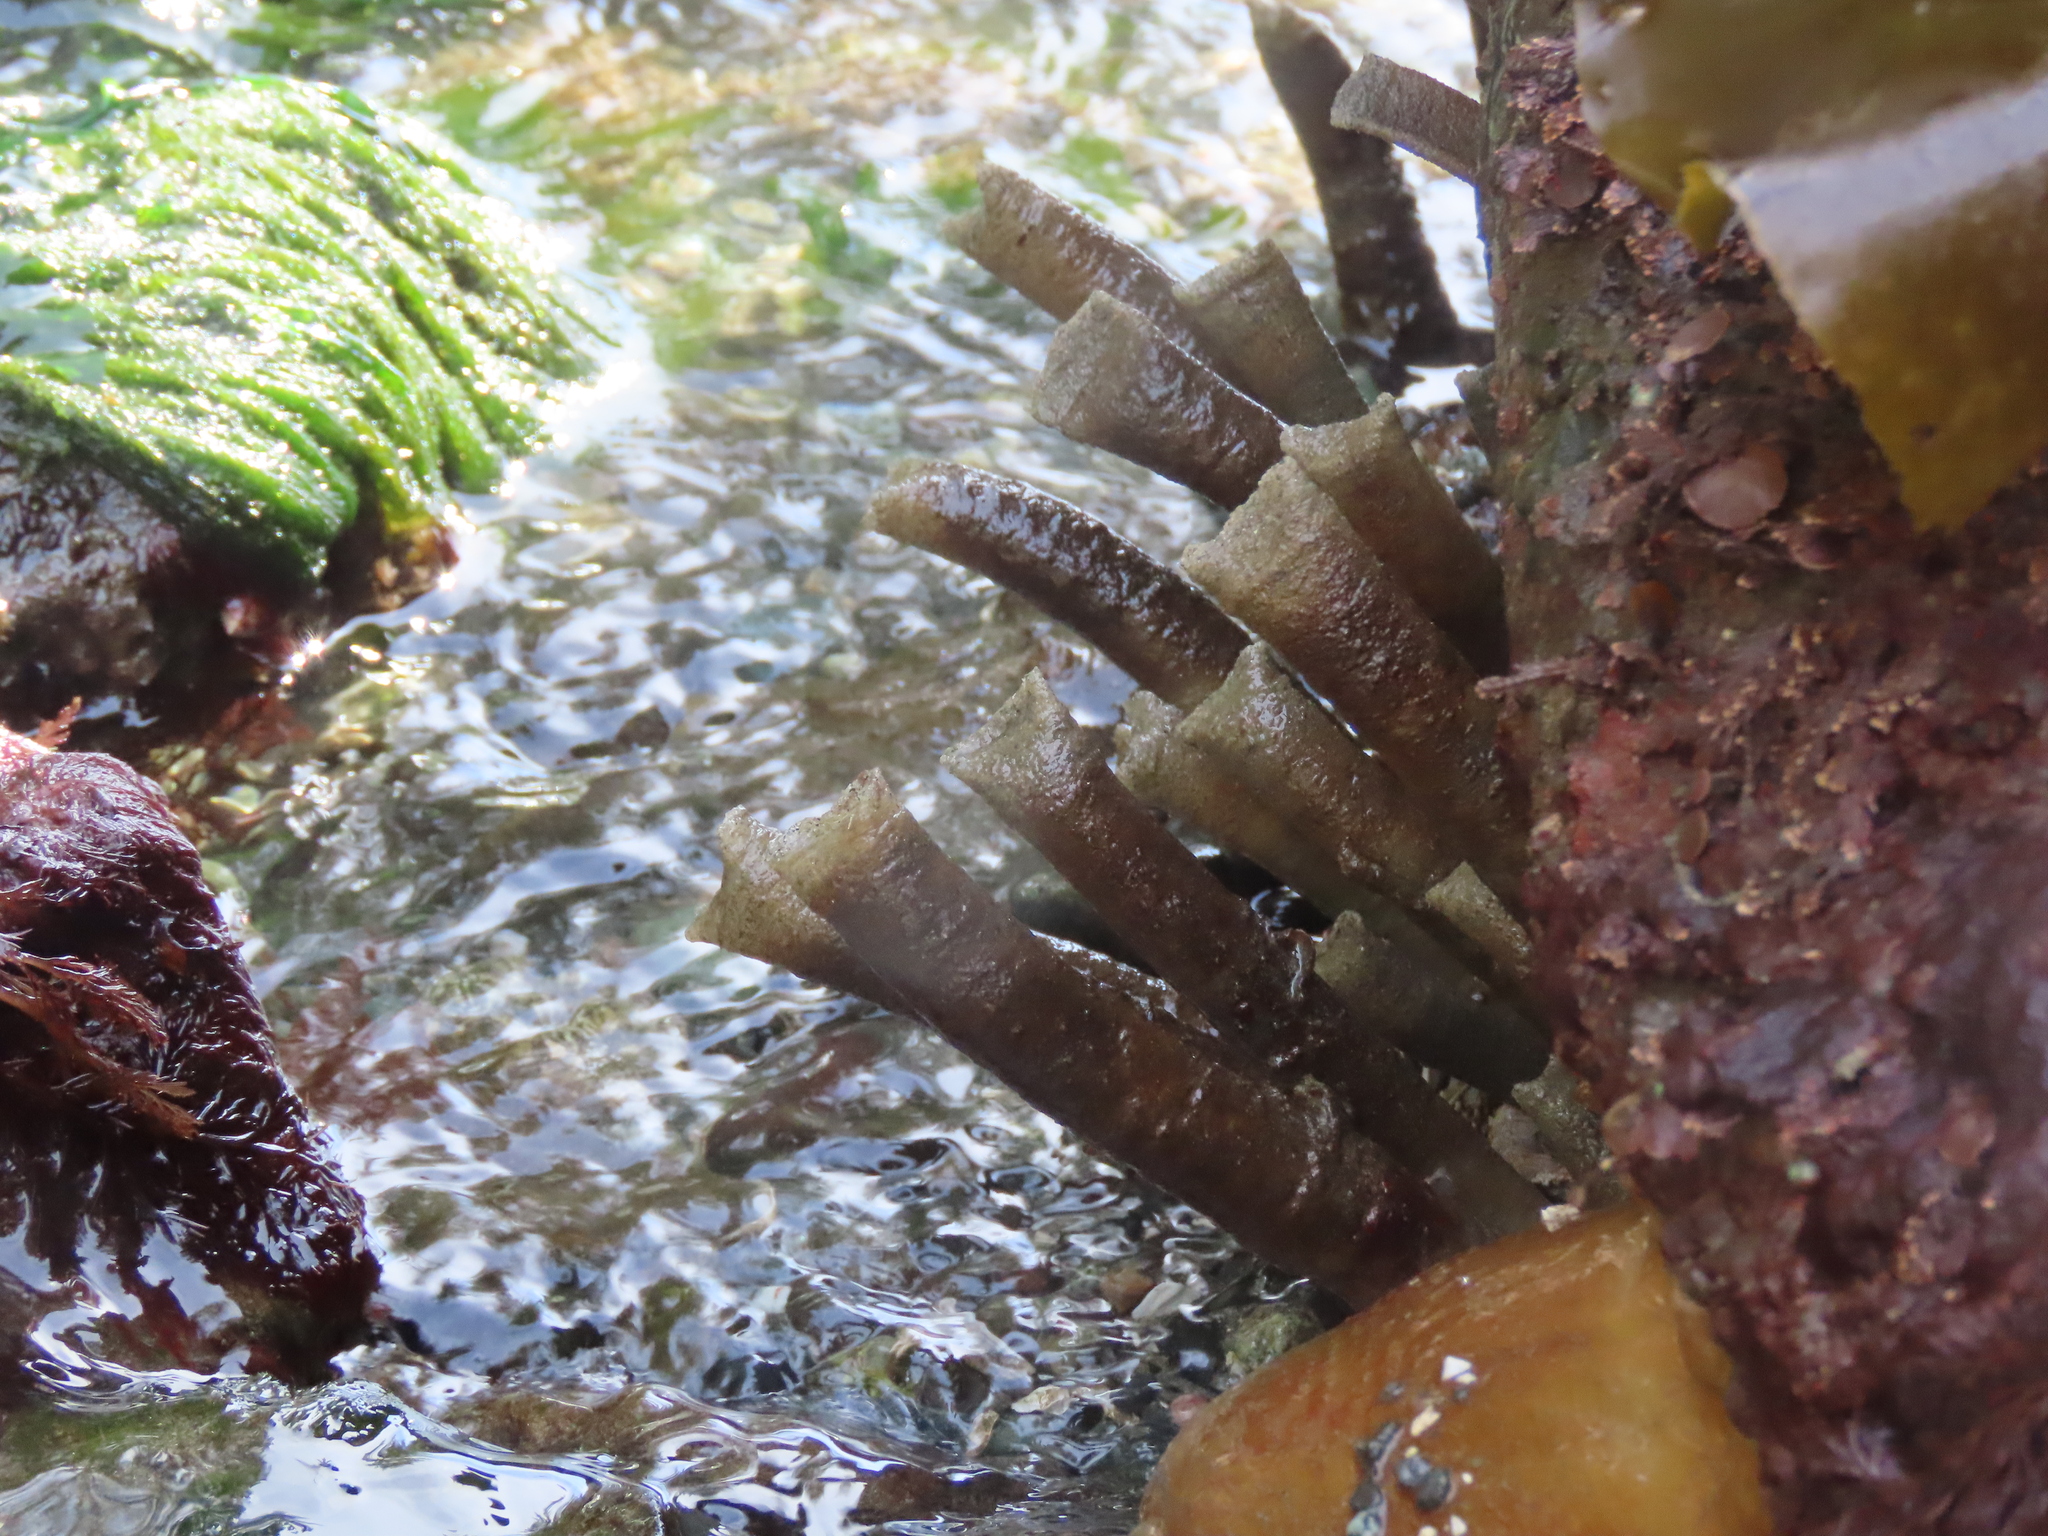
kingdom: Animalia
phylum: Annelida
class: Polychaeta
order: Sabellida
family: Sabellidae
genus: Eudistylia
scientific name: Eudistylia vancouveri
